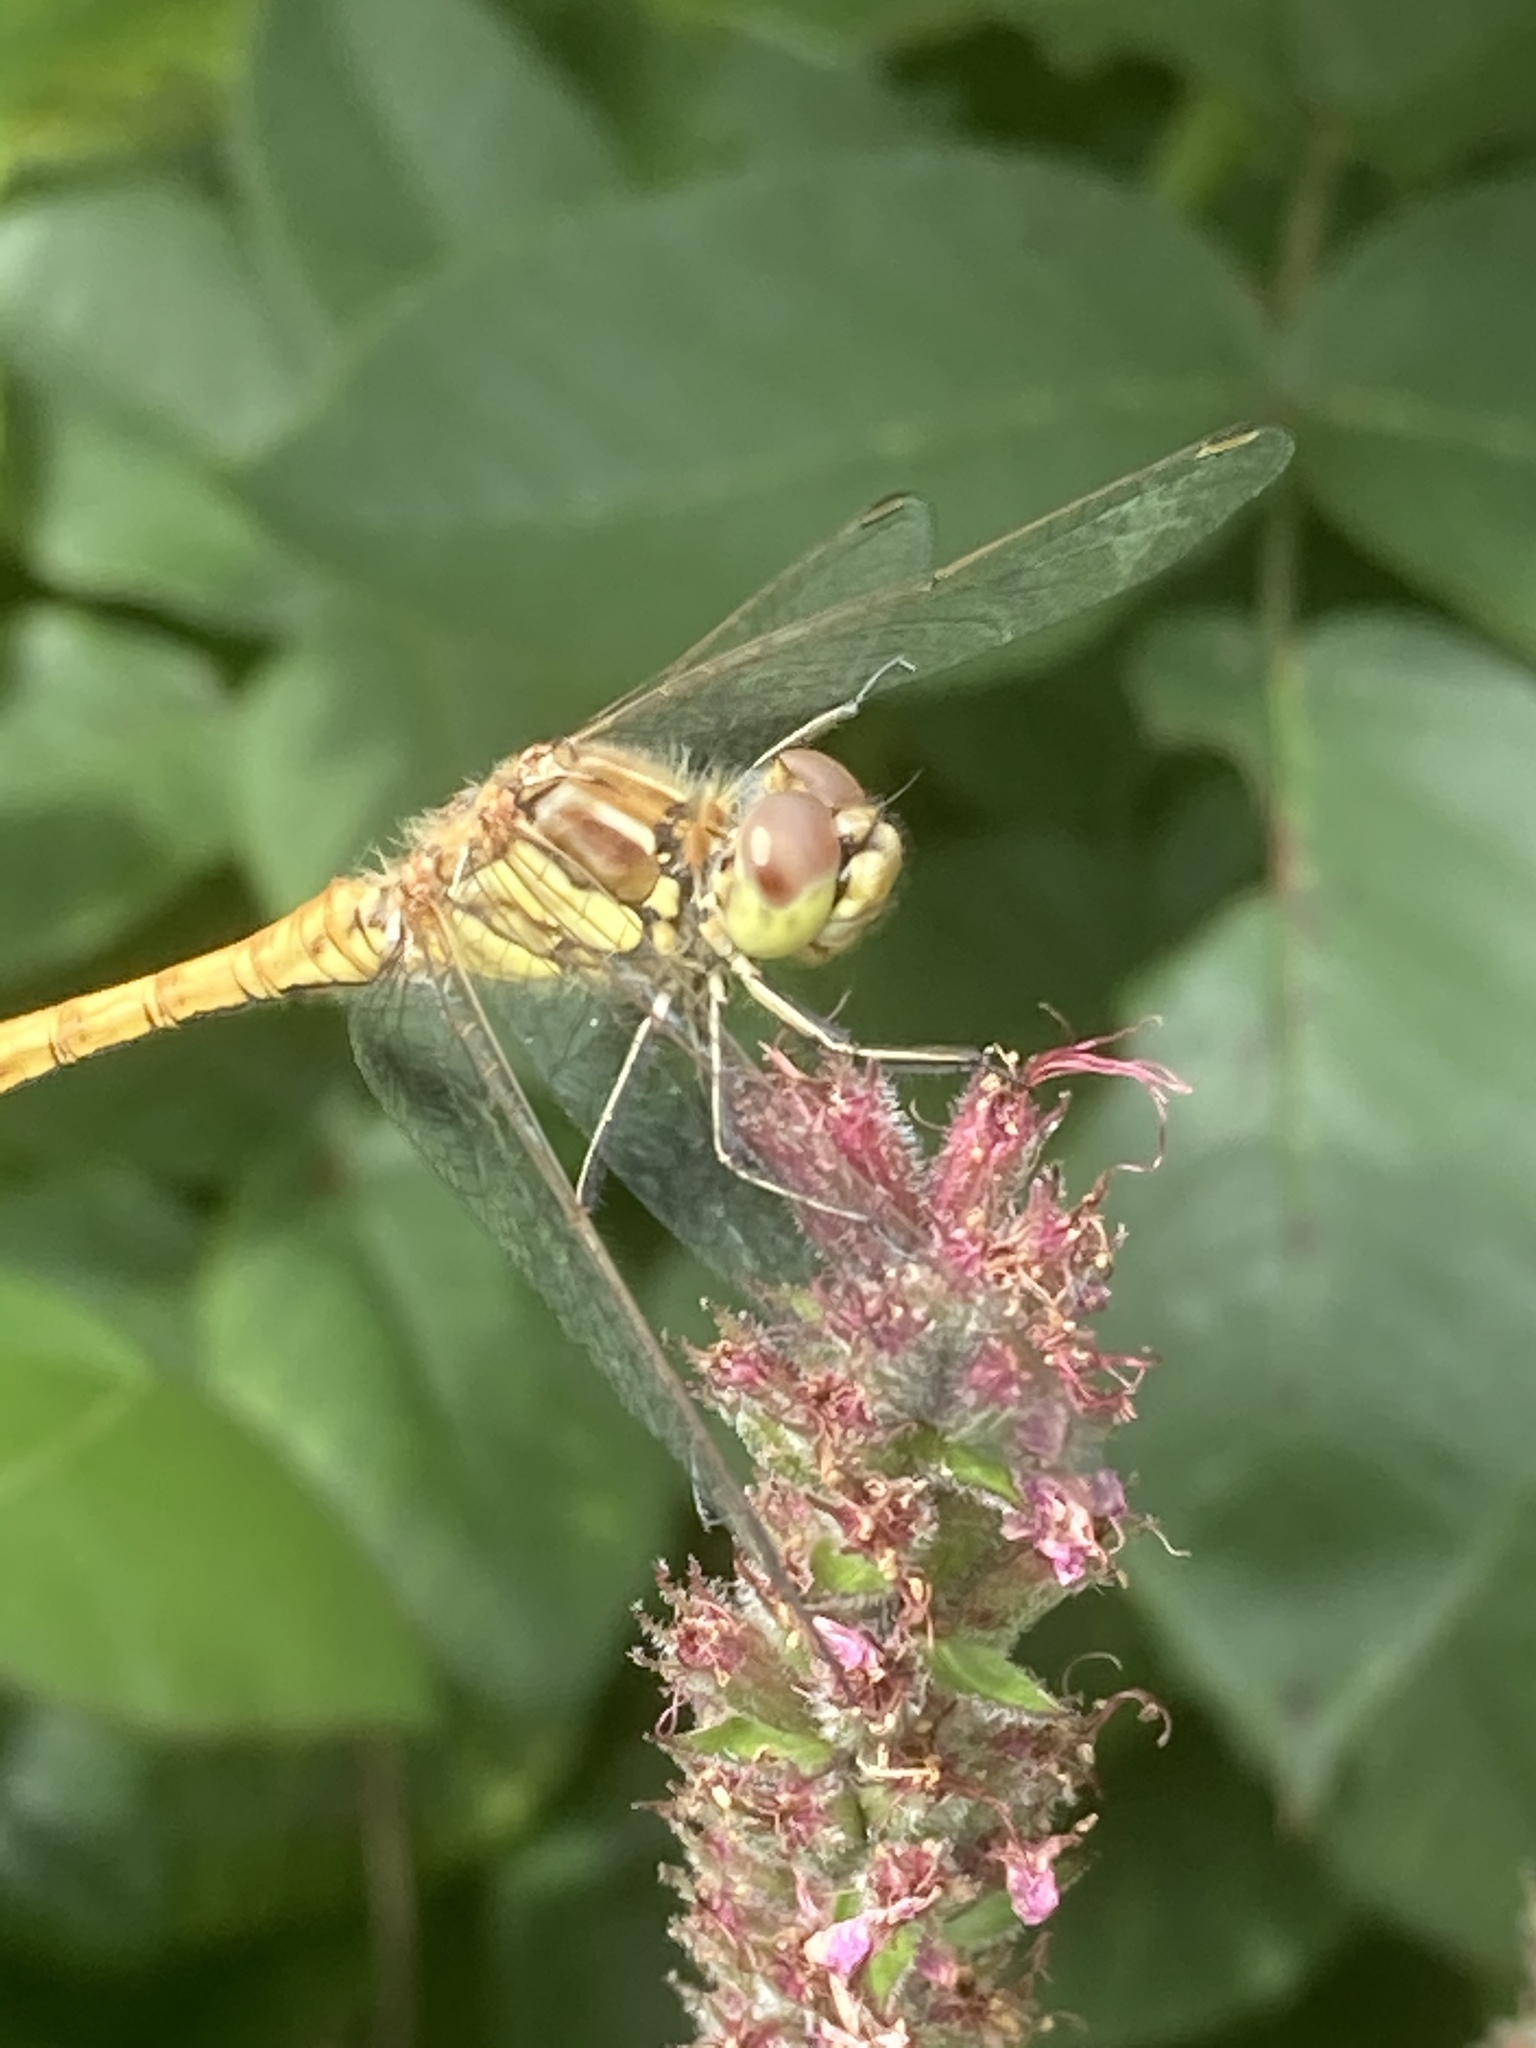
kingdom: Animalia
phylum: Arthropoda
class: Insecta
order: Odonata
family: Libellulidae
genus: Sympetrum
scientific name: Sympetrum vulgatum
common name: Vagrant darter
